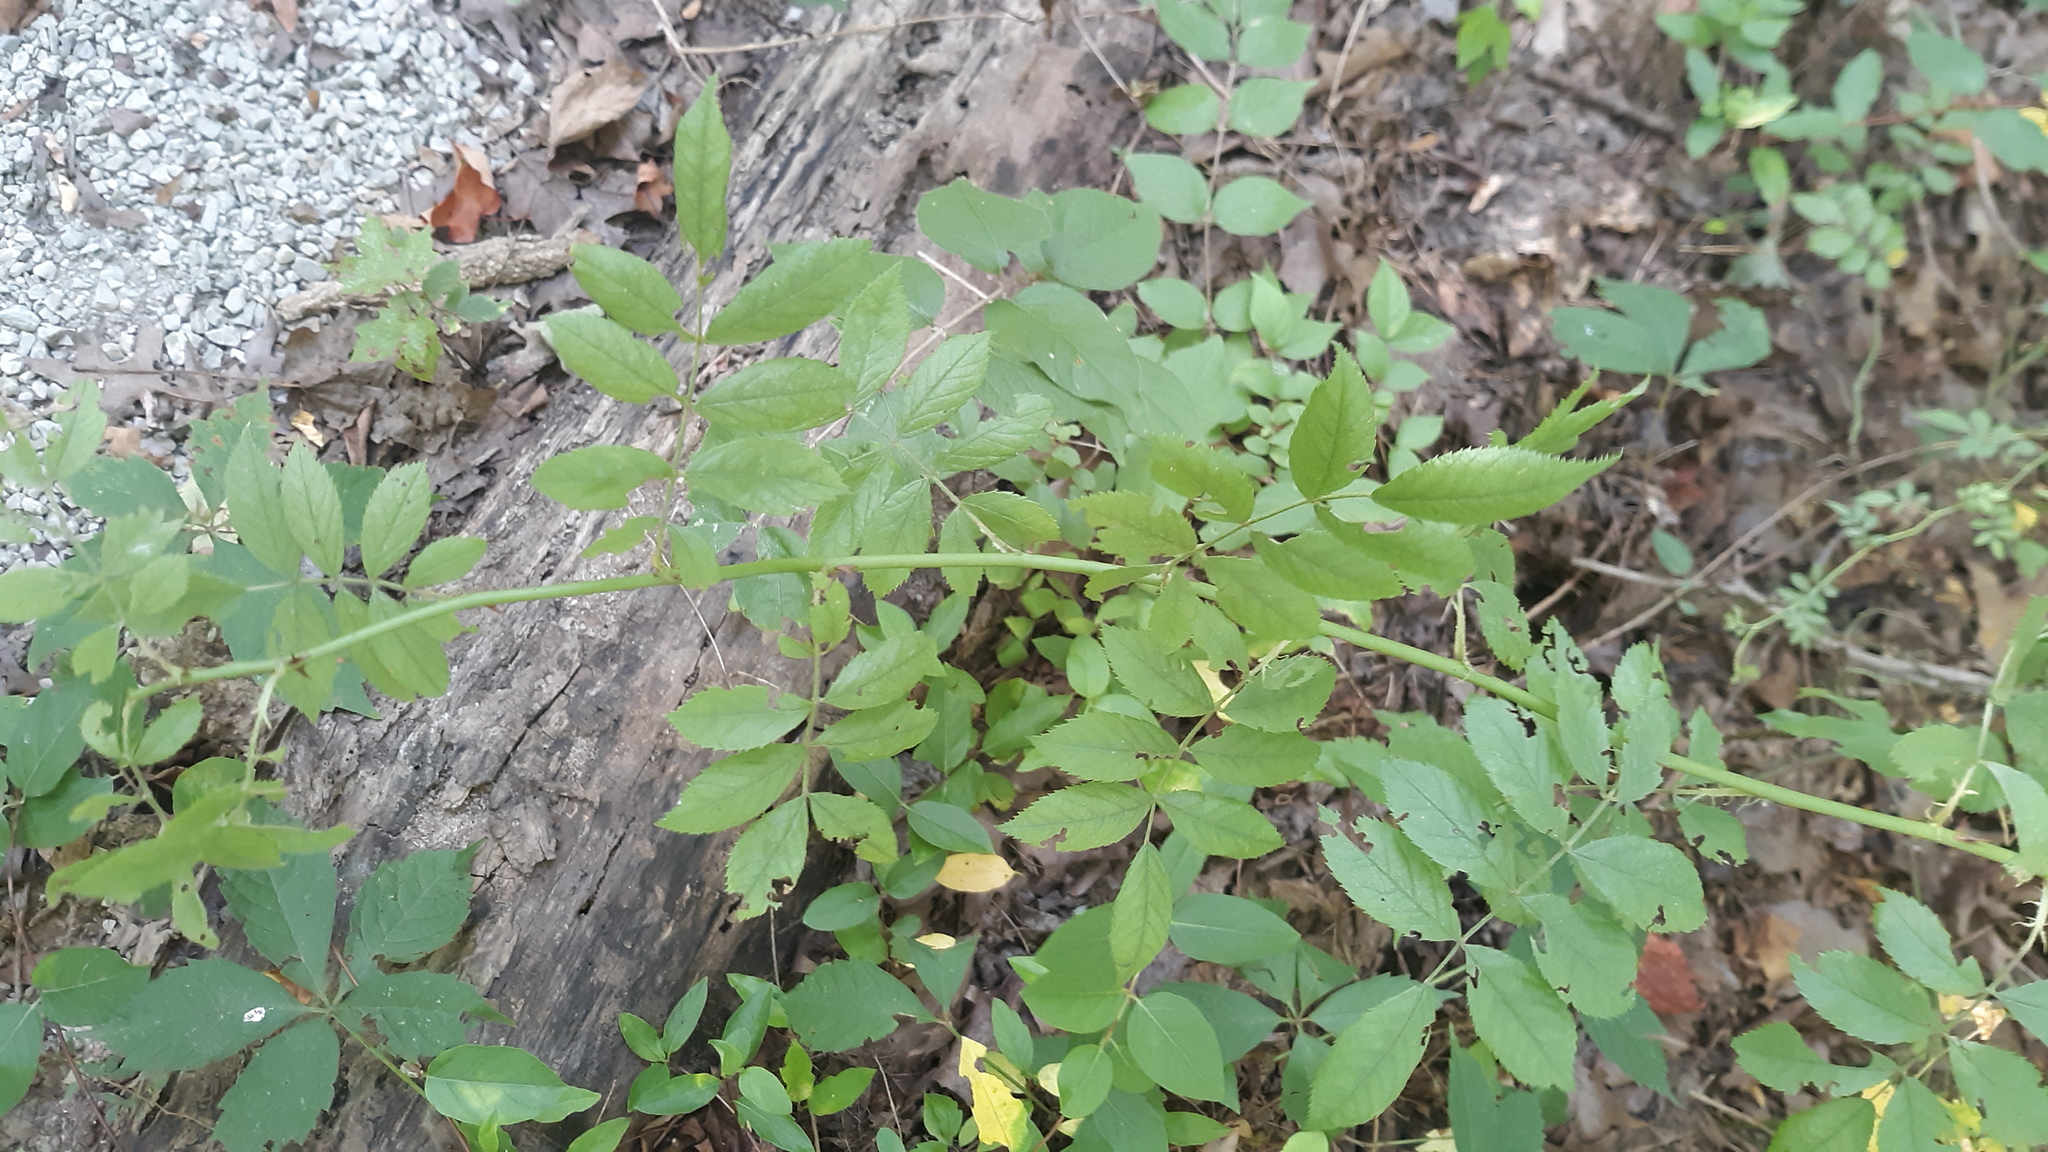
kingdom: Plantae
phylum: Tracheophyta
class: Magnoliopsida
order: Rosales
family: Rosaceae
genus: Rosa
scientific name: Rosa multiflora
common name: Multiflora rose
